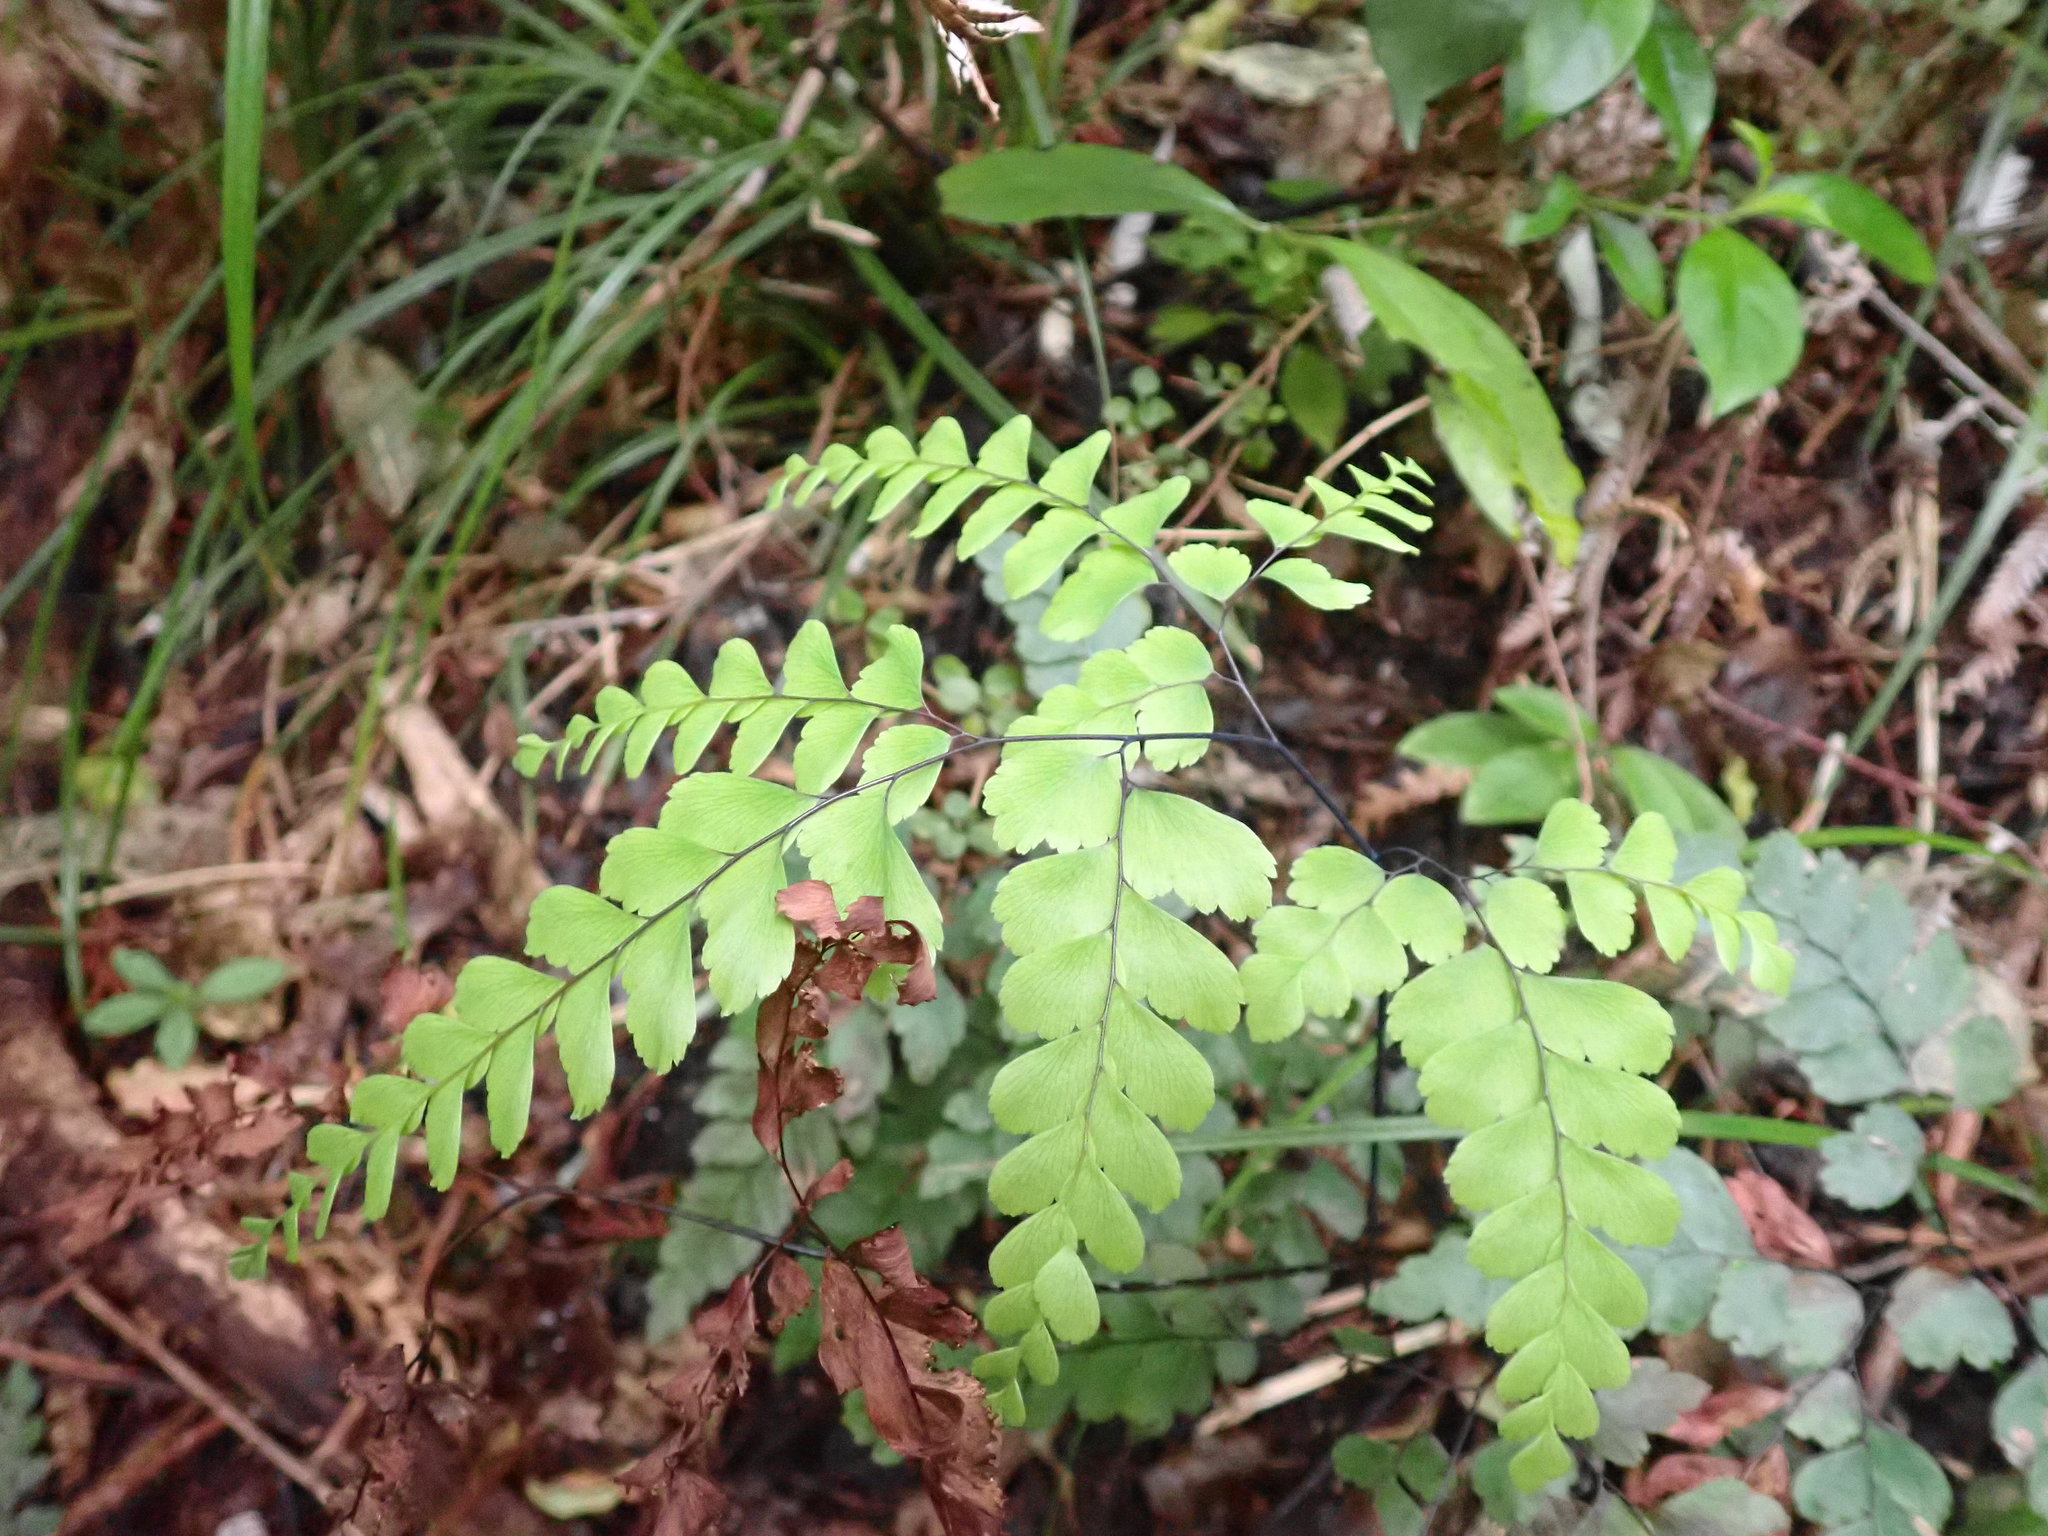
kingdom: Plantae
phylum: Tracheophyta
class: Polypodiopsida
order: Polypodiales
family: Pteridaceae
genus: Adiantum
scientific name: Adiantum cunninghamii
